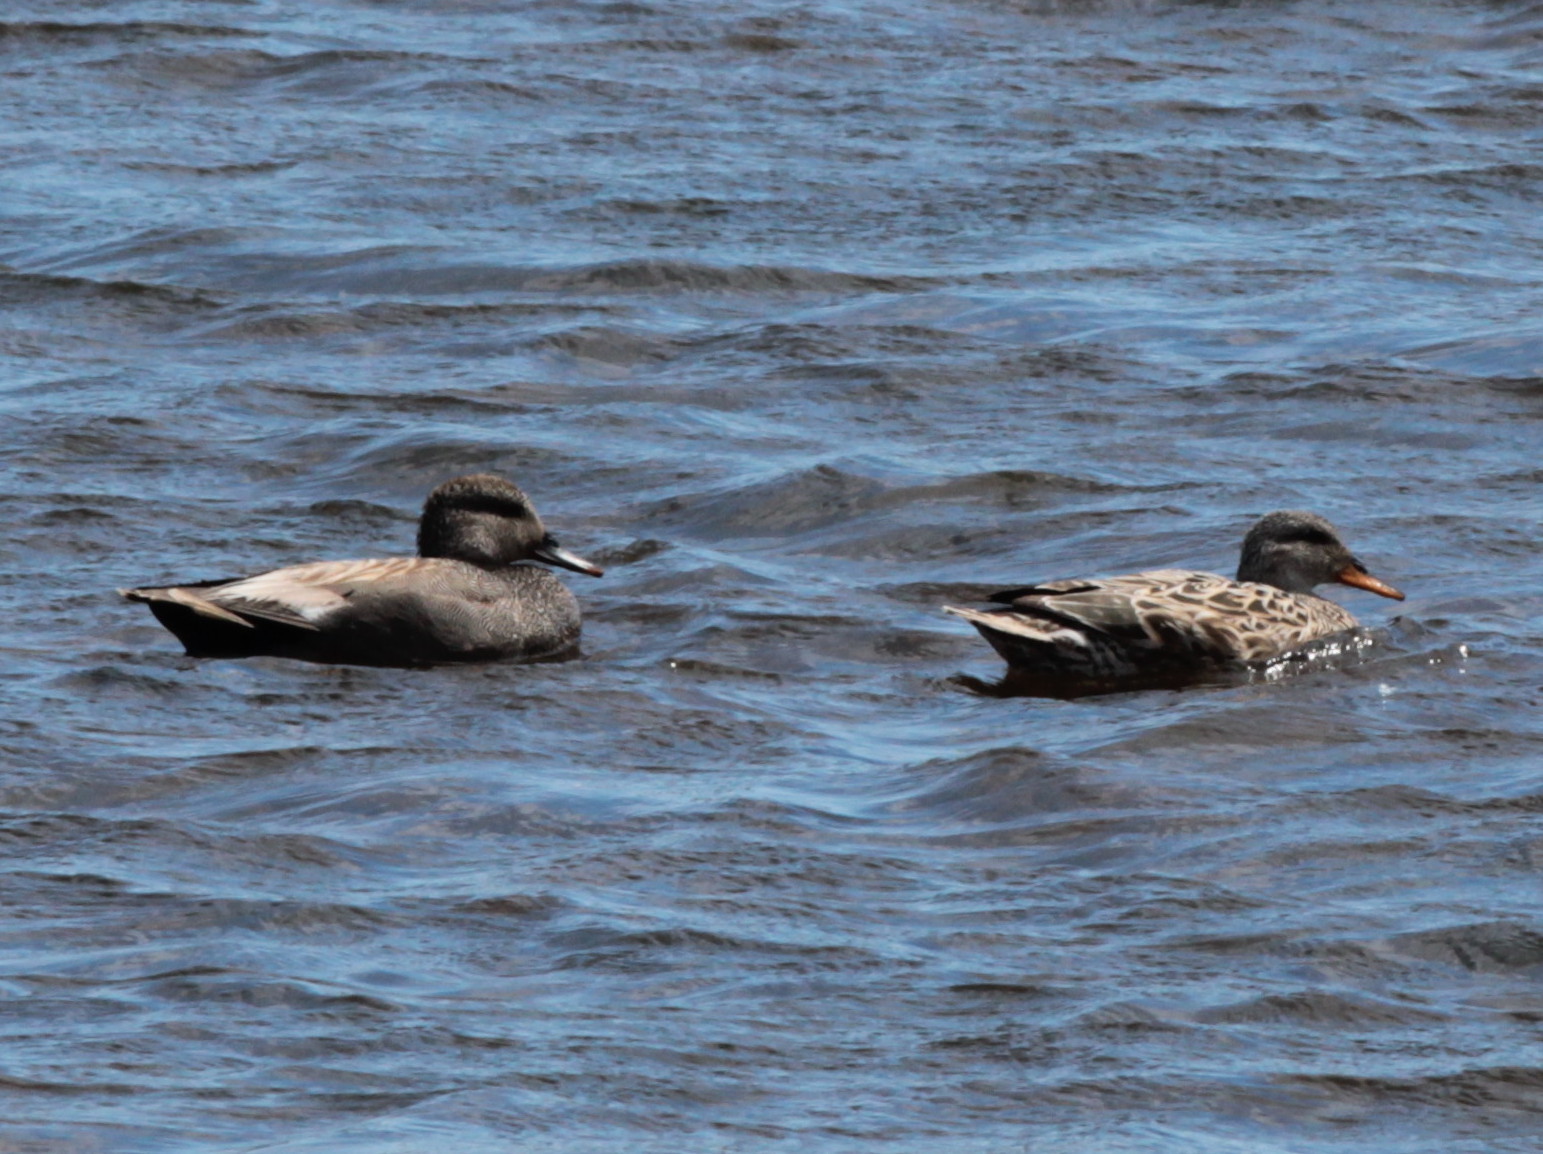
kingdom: Animalia
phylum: Chordata
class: Aves
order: Anseriformes
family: Anatidae
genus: Mareca
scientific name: Mareca strepera
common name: Gadwall
